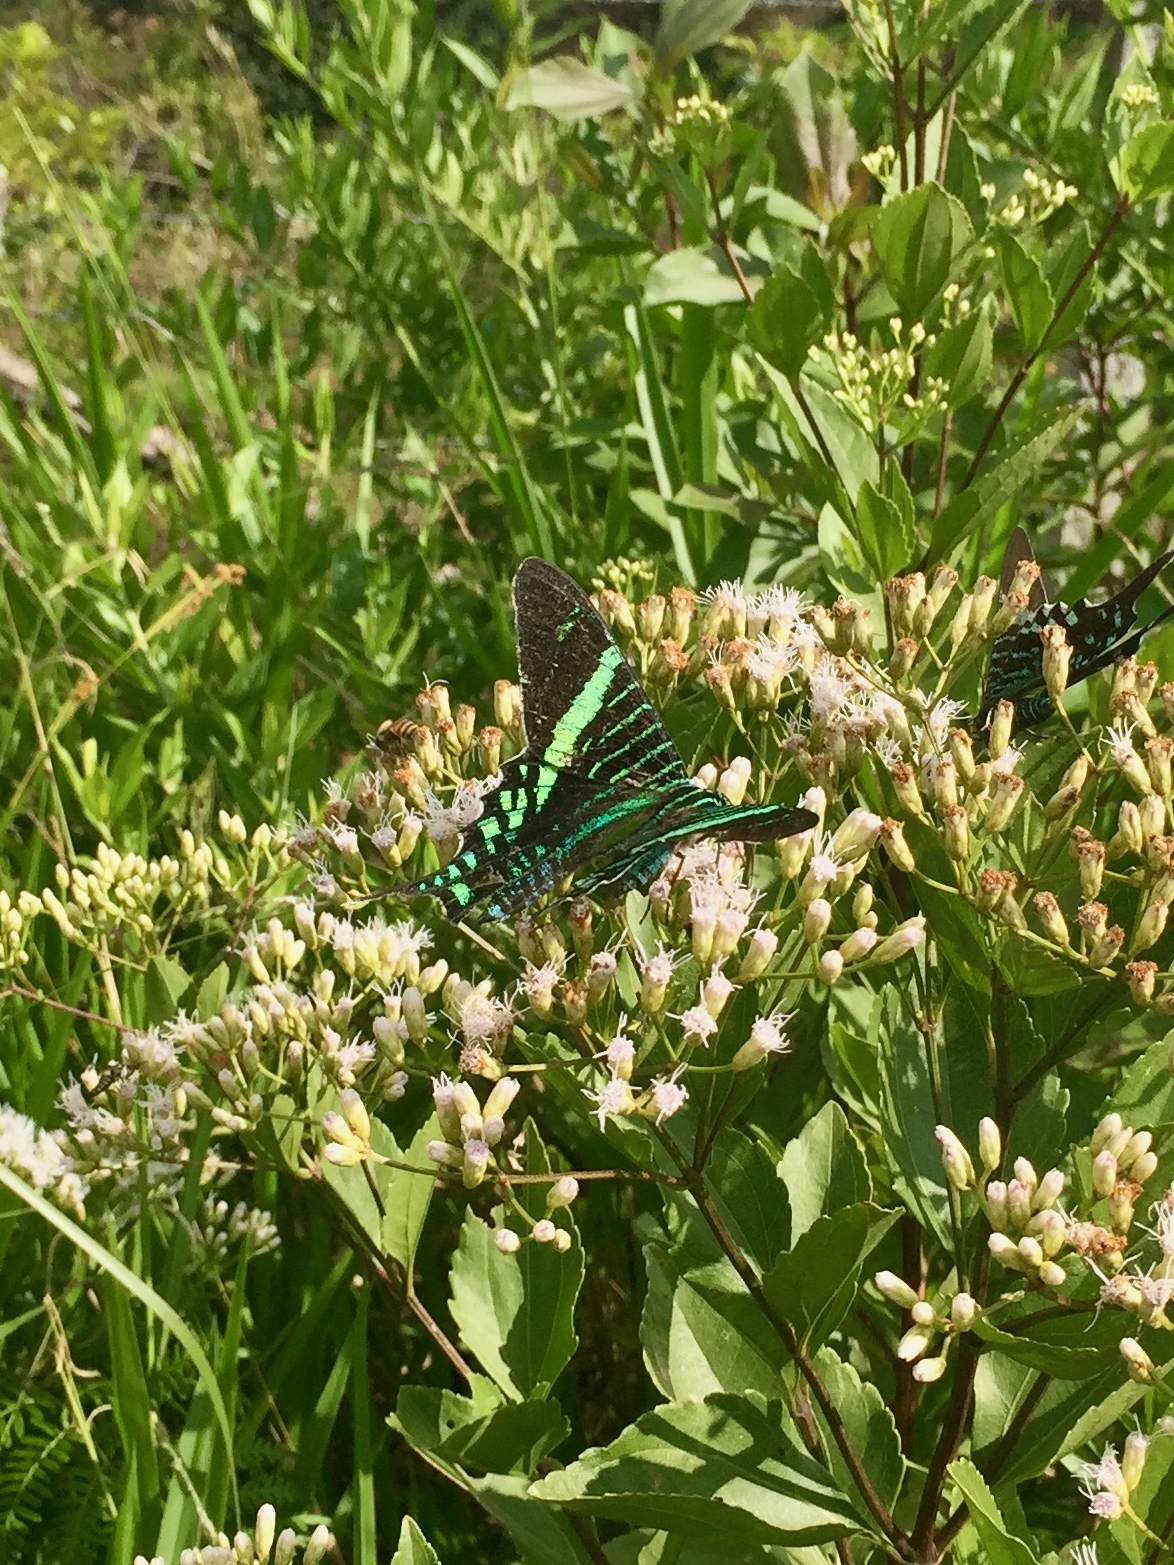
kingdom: Animalia
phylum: Arthropoda
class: Insecta
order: Lepidoptera
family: Uraniidae
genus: Urania
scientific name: Urania fulgens
